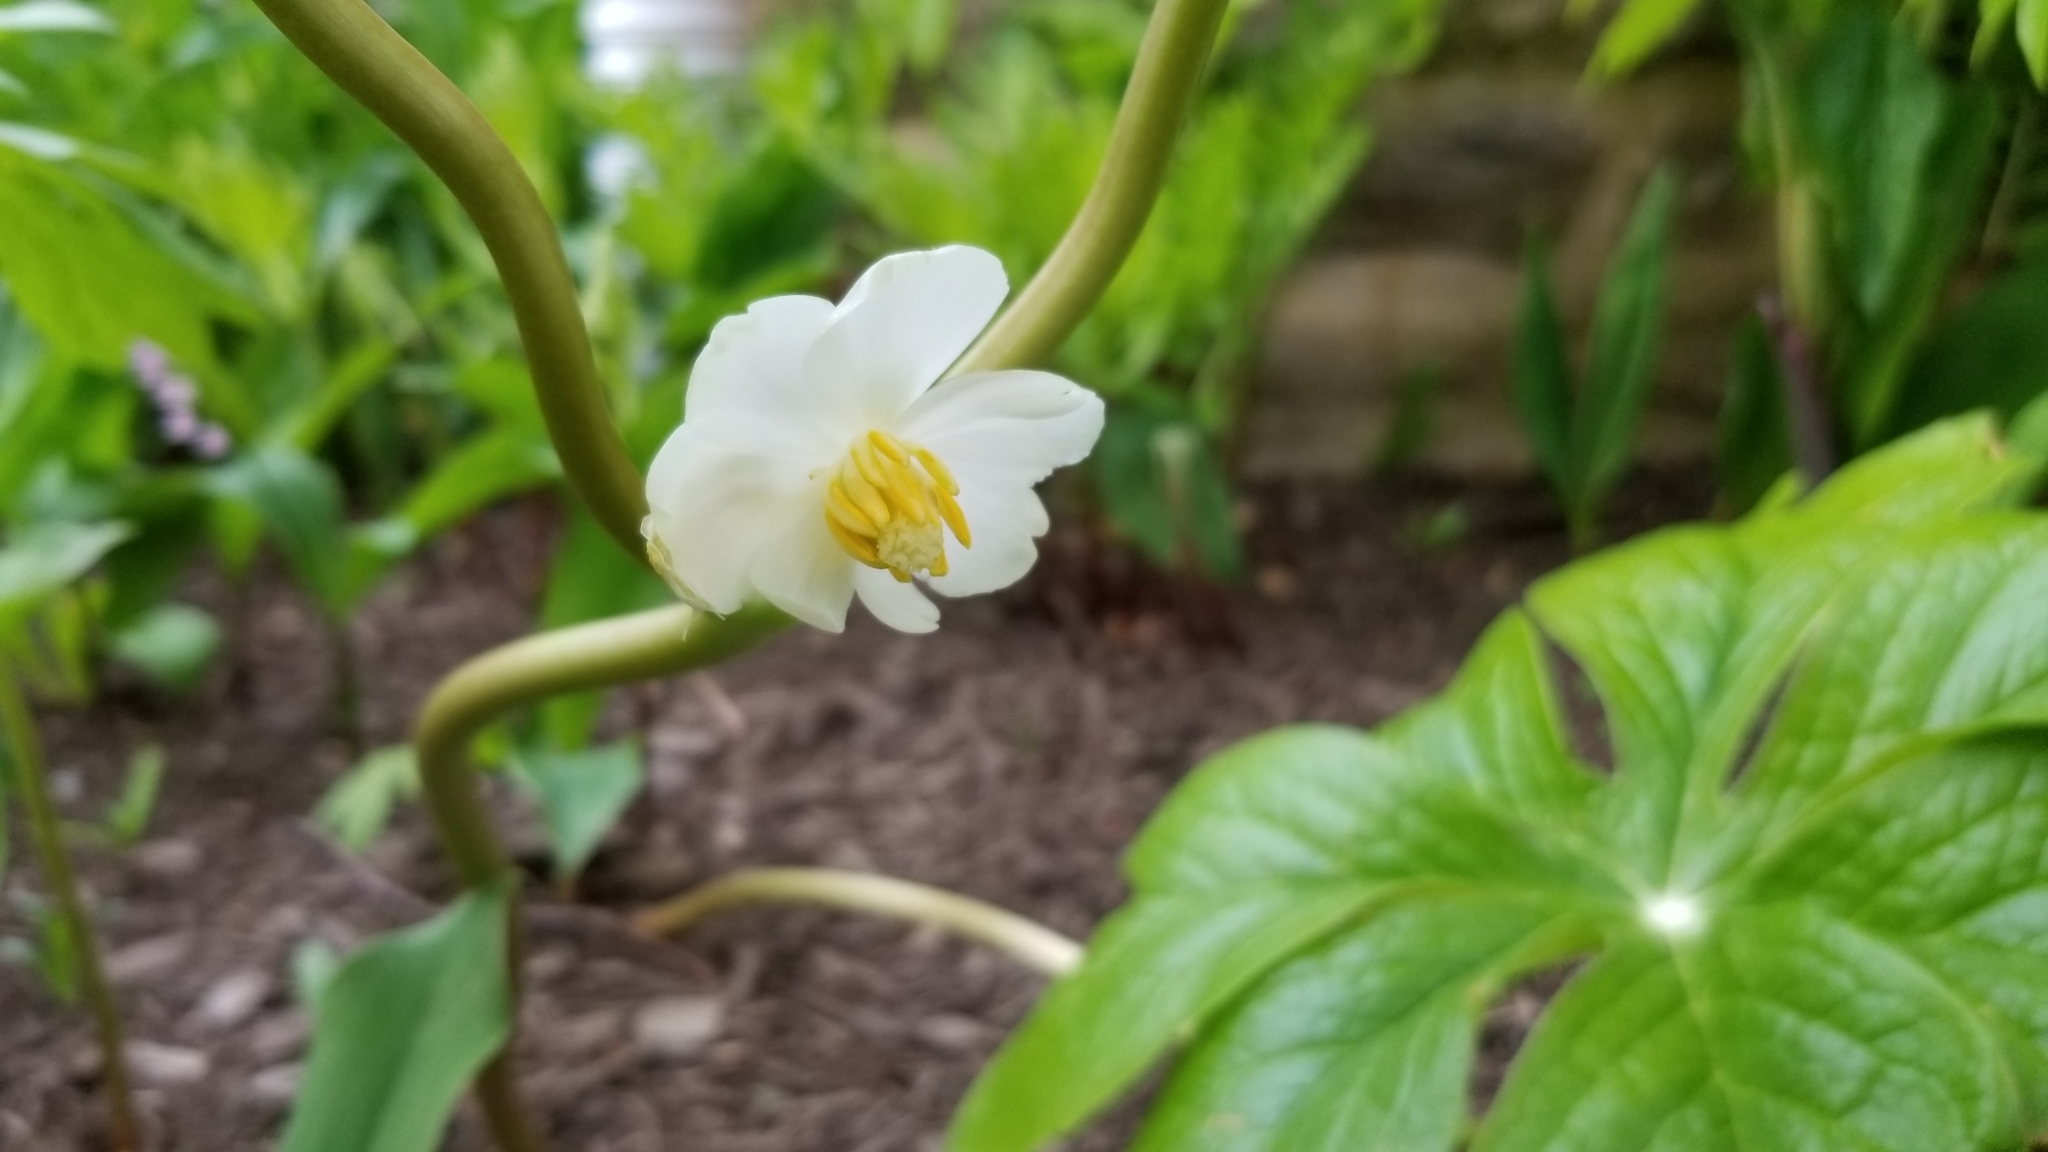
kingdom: Plantae
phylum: Tracheophyta
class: Magnoliopsida
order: Ranunculales
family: Berberidaceae
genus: Podophyllum
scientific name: Podophyllum peltatum
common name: Wild mandrake
